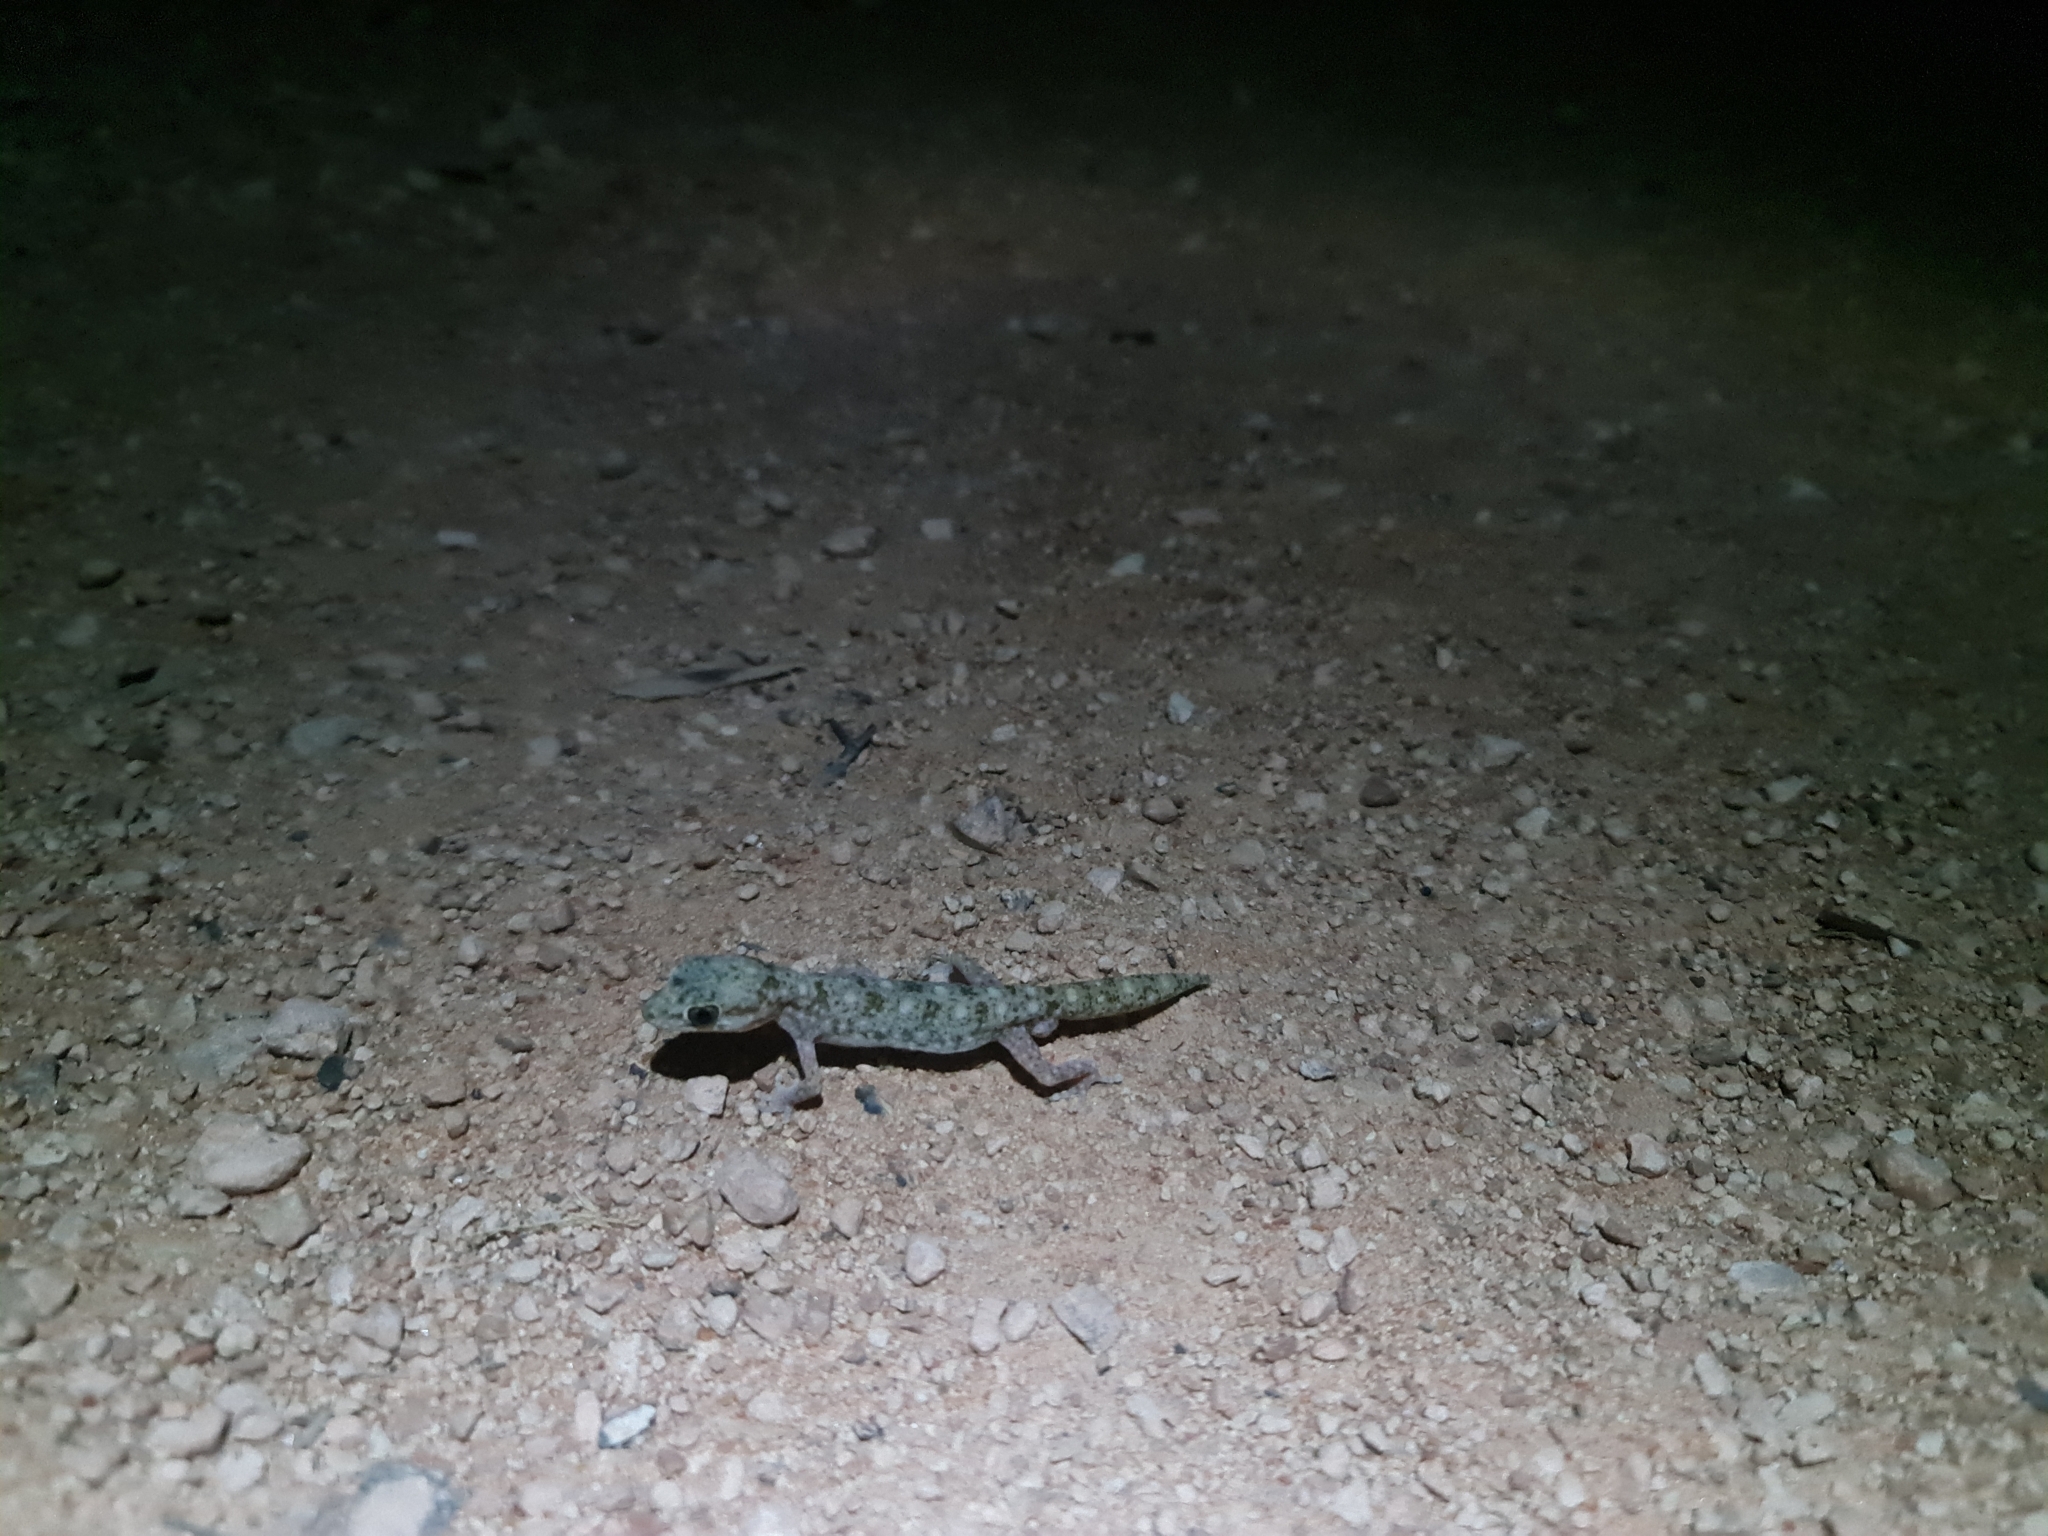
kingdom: Animalia
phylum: Chordata
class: Squamata
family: Diplodactylidae
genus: Diplodactylus
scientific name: Diplodactylus tessellatus
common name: Tesselated gecko
